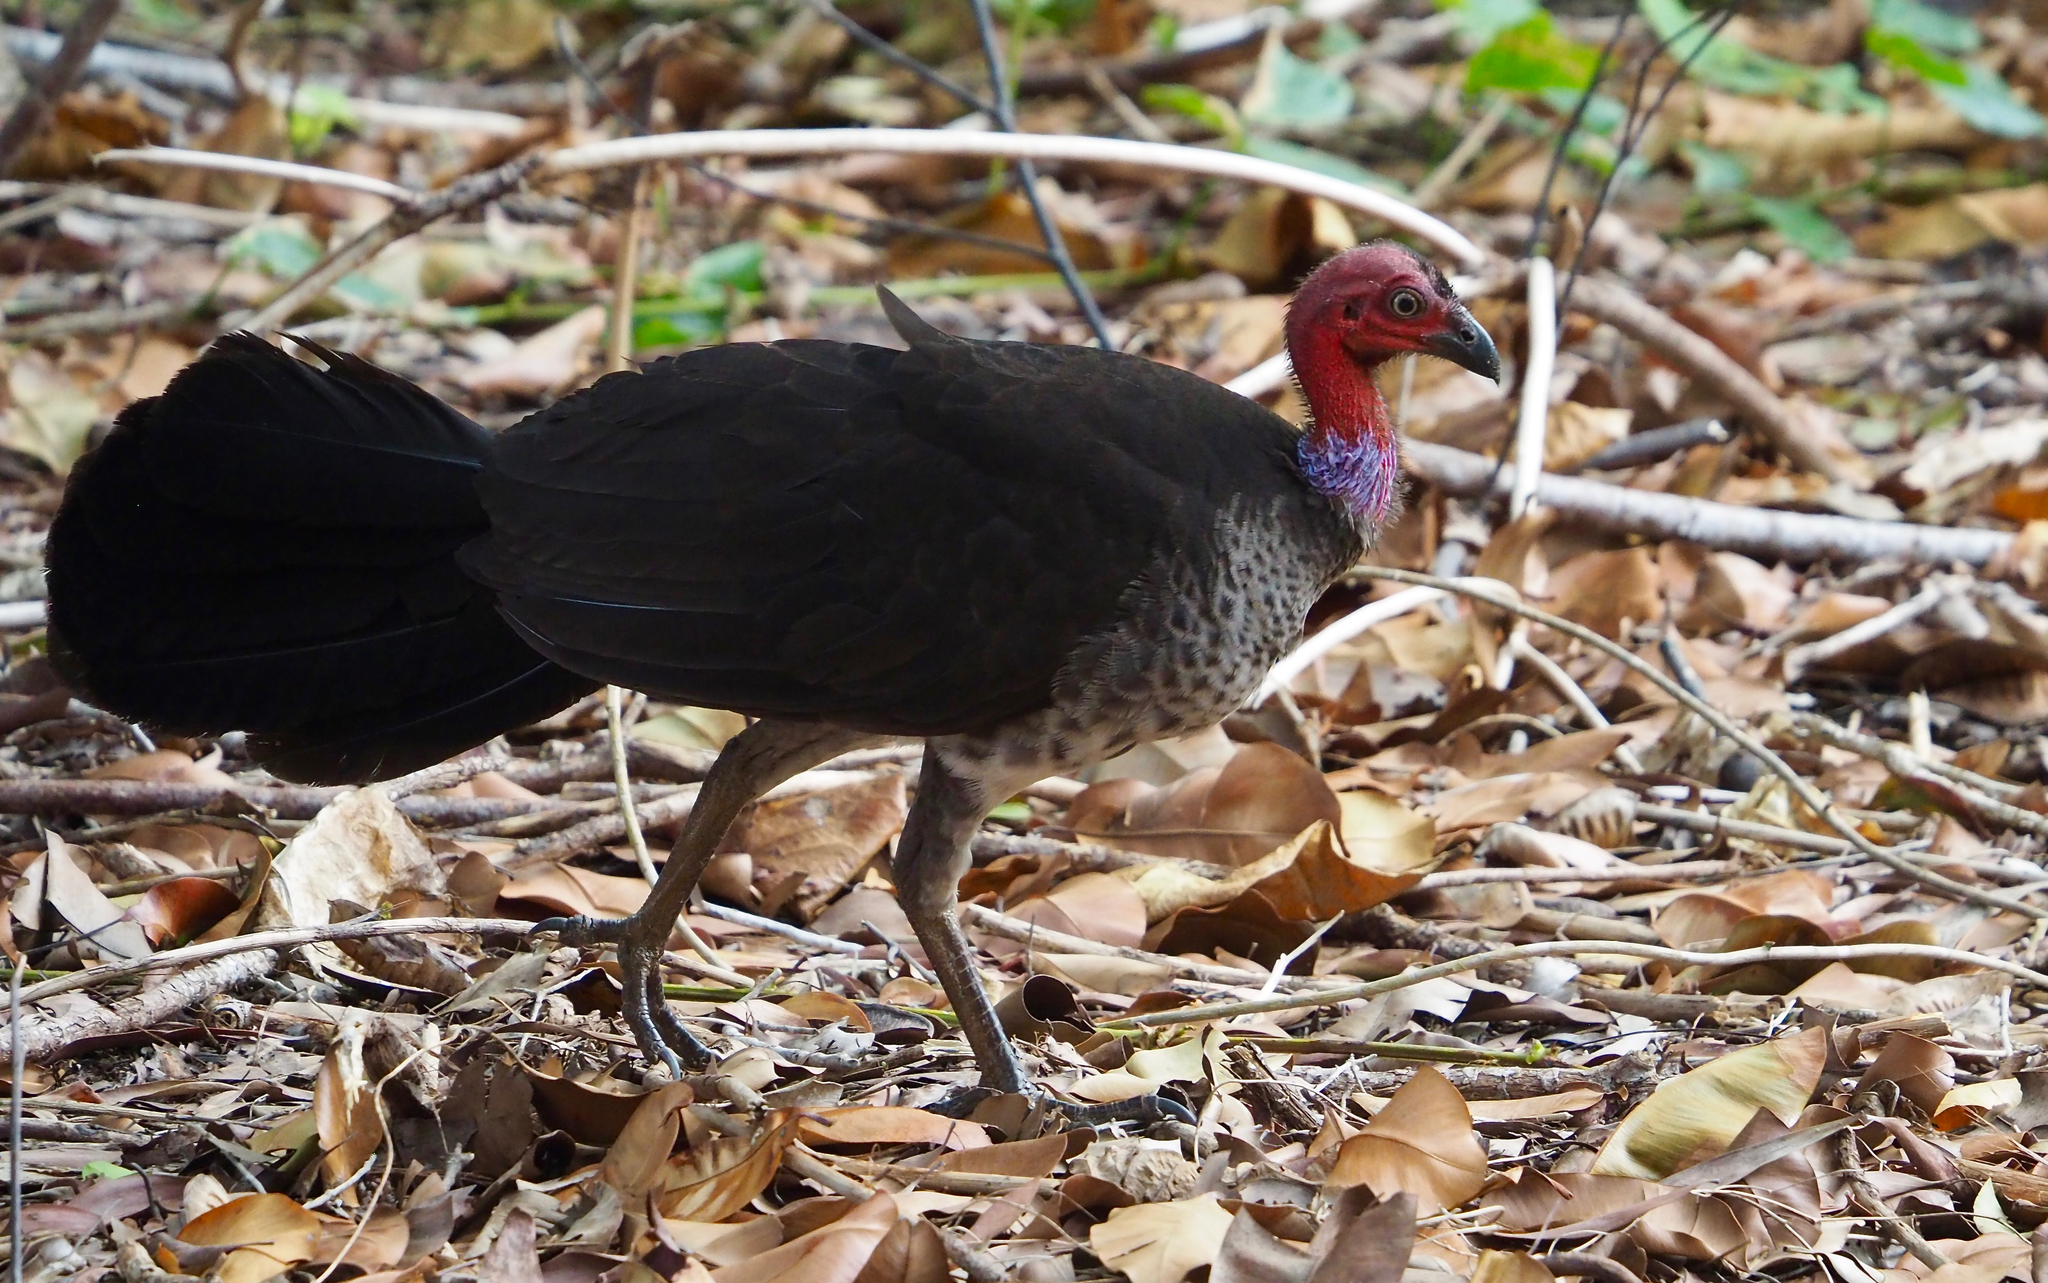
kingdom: Animalia
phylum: Chordata
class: Aves
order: Galliformes
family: Megapodiidae
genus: Alectura
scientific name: Alectura lathami
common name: Australian brushturkey
